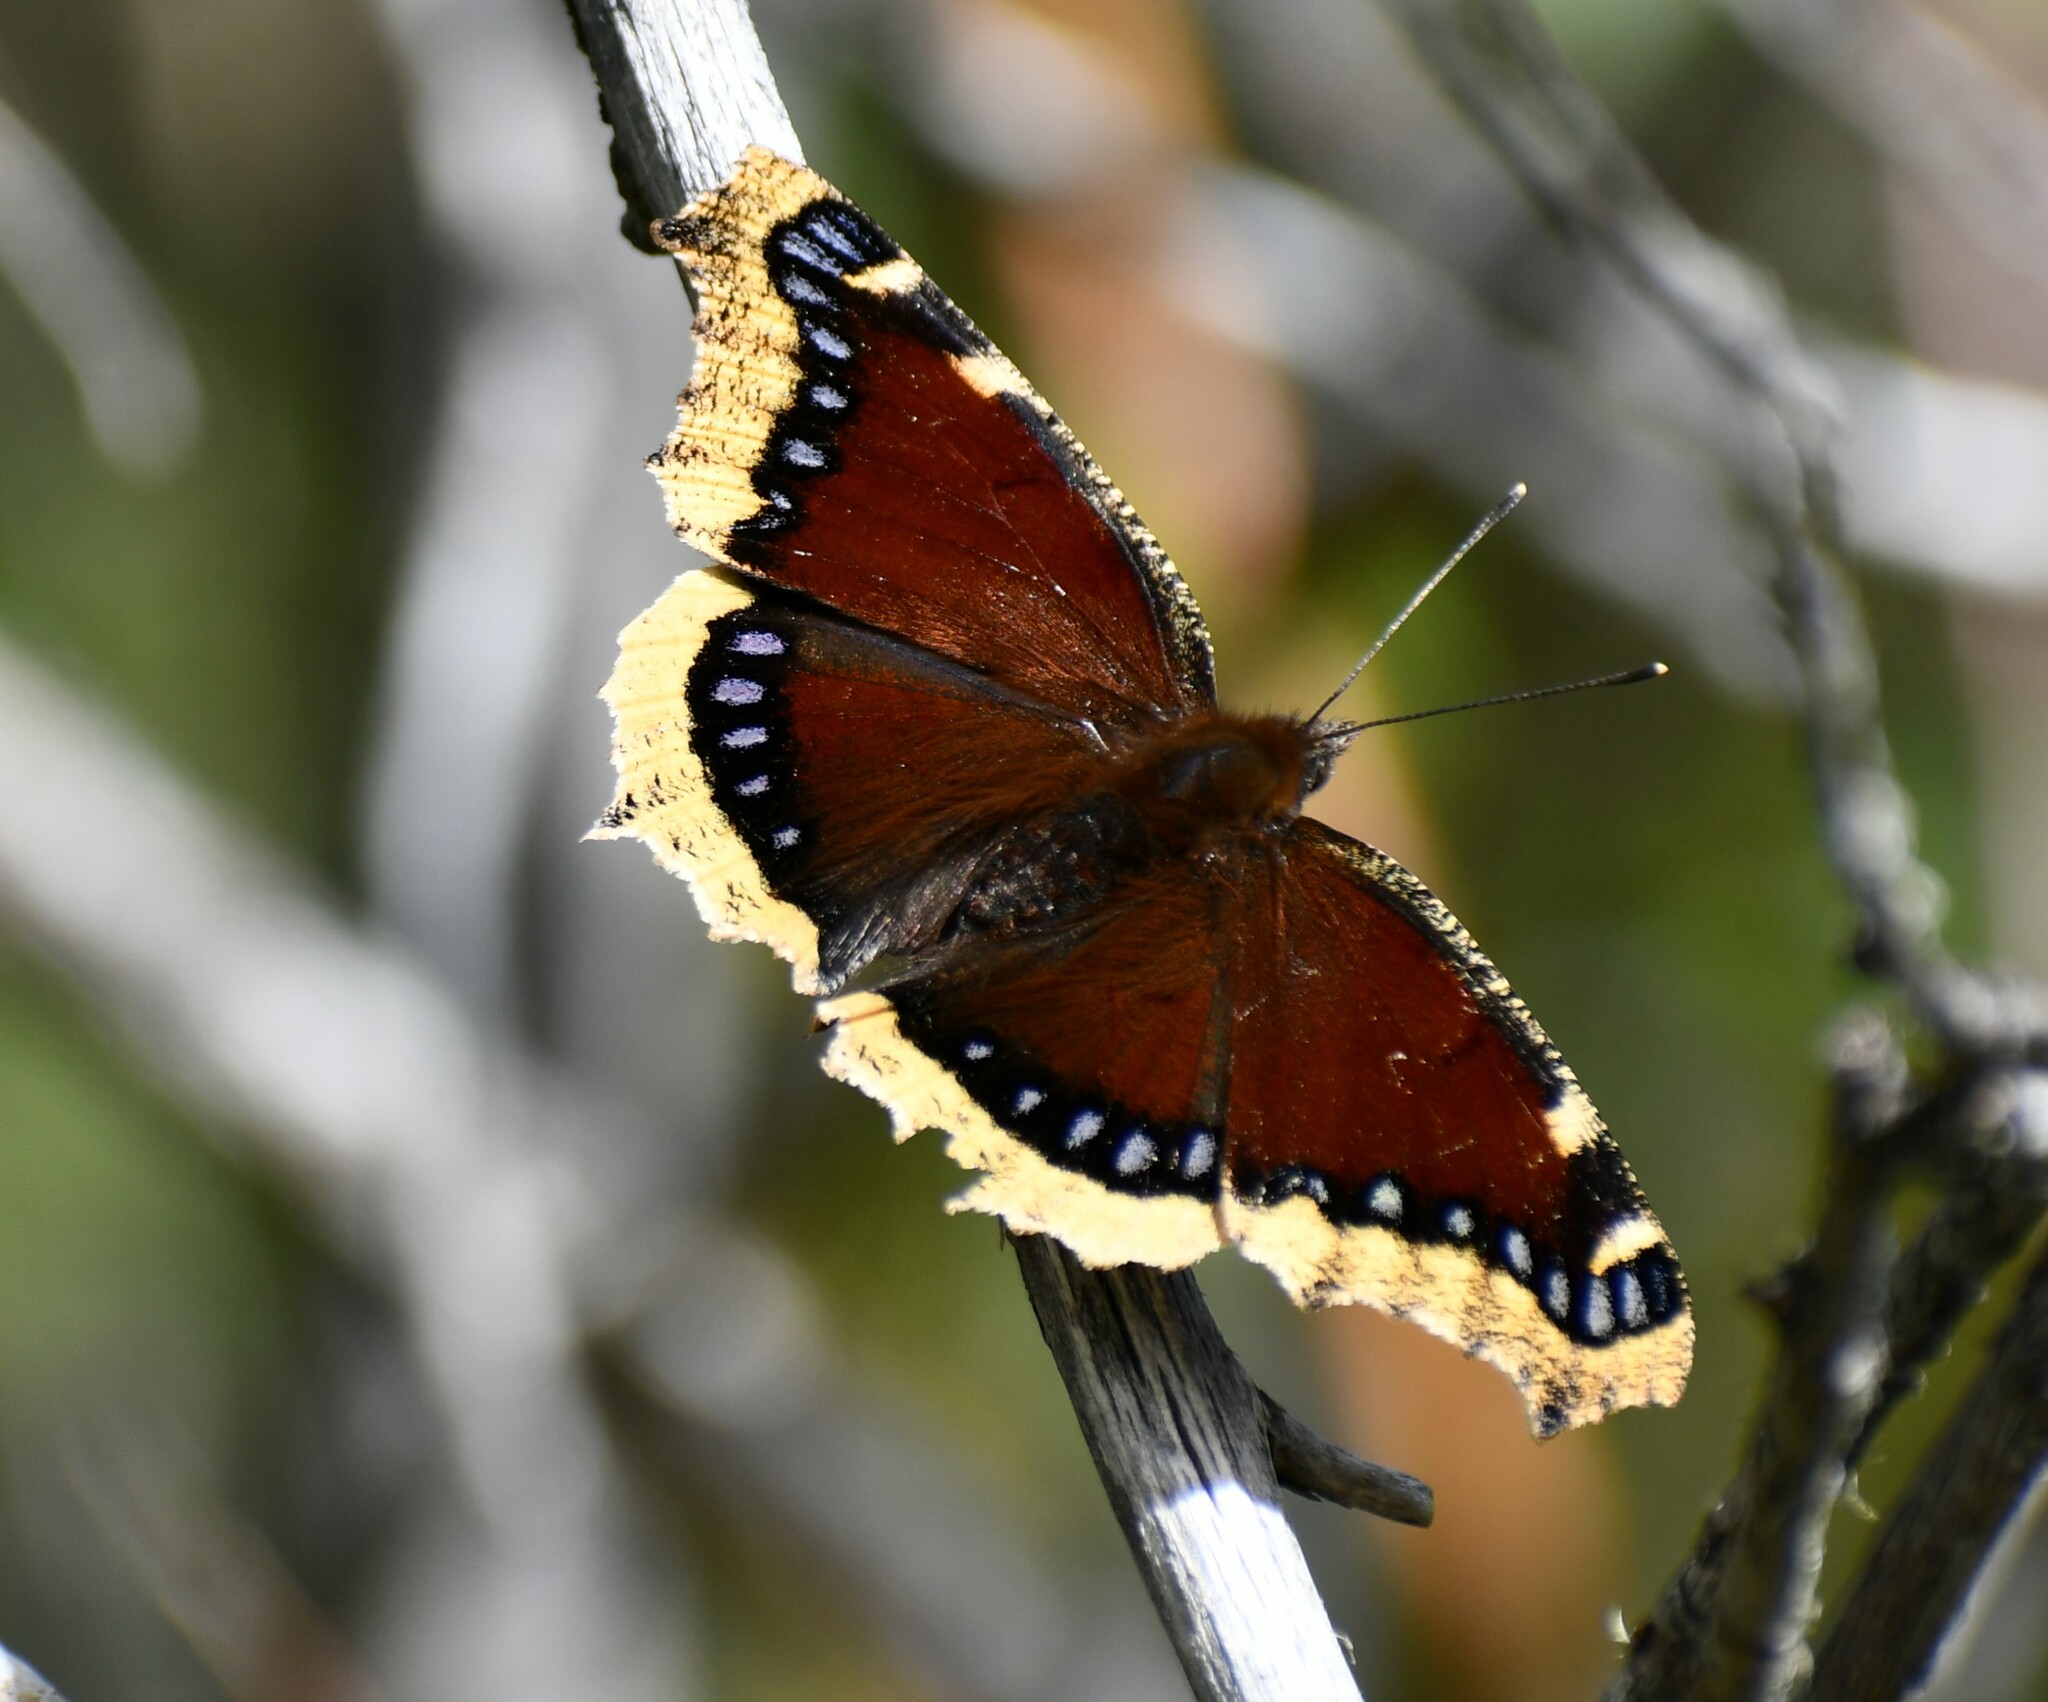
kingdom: Animalia
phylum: Arthropoda
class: Insecta
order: Lepidoptera
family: Nymphalidae
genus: Nymphalis
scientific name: Nymphalis antiopa
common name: Camberwell beauty
